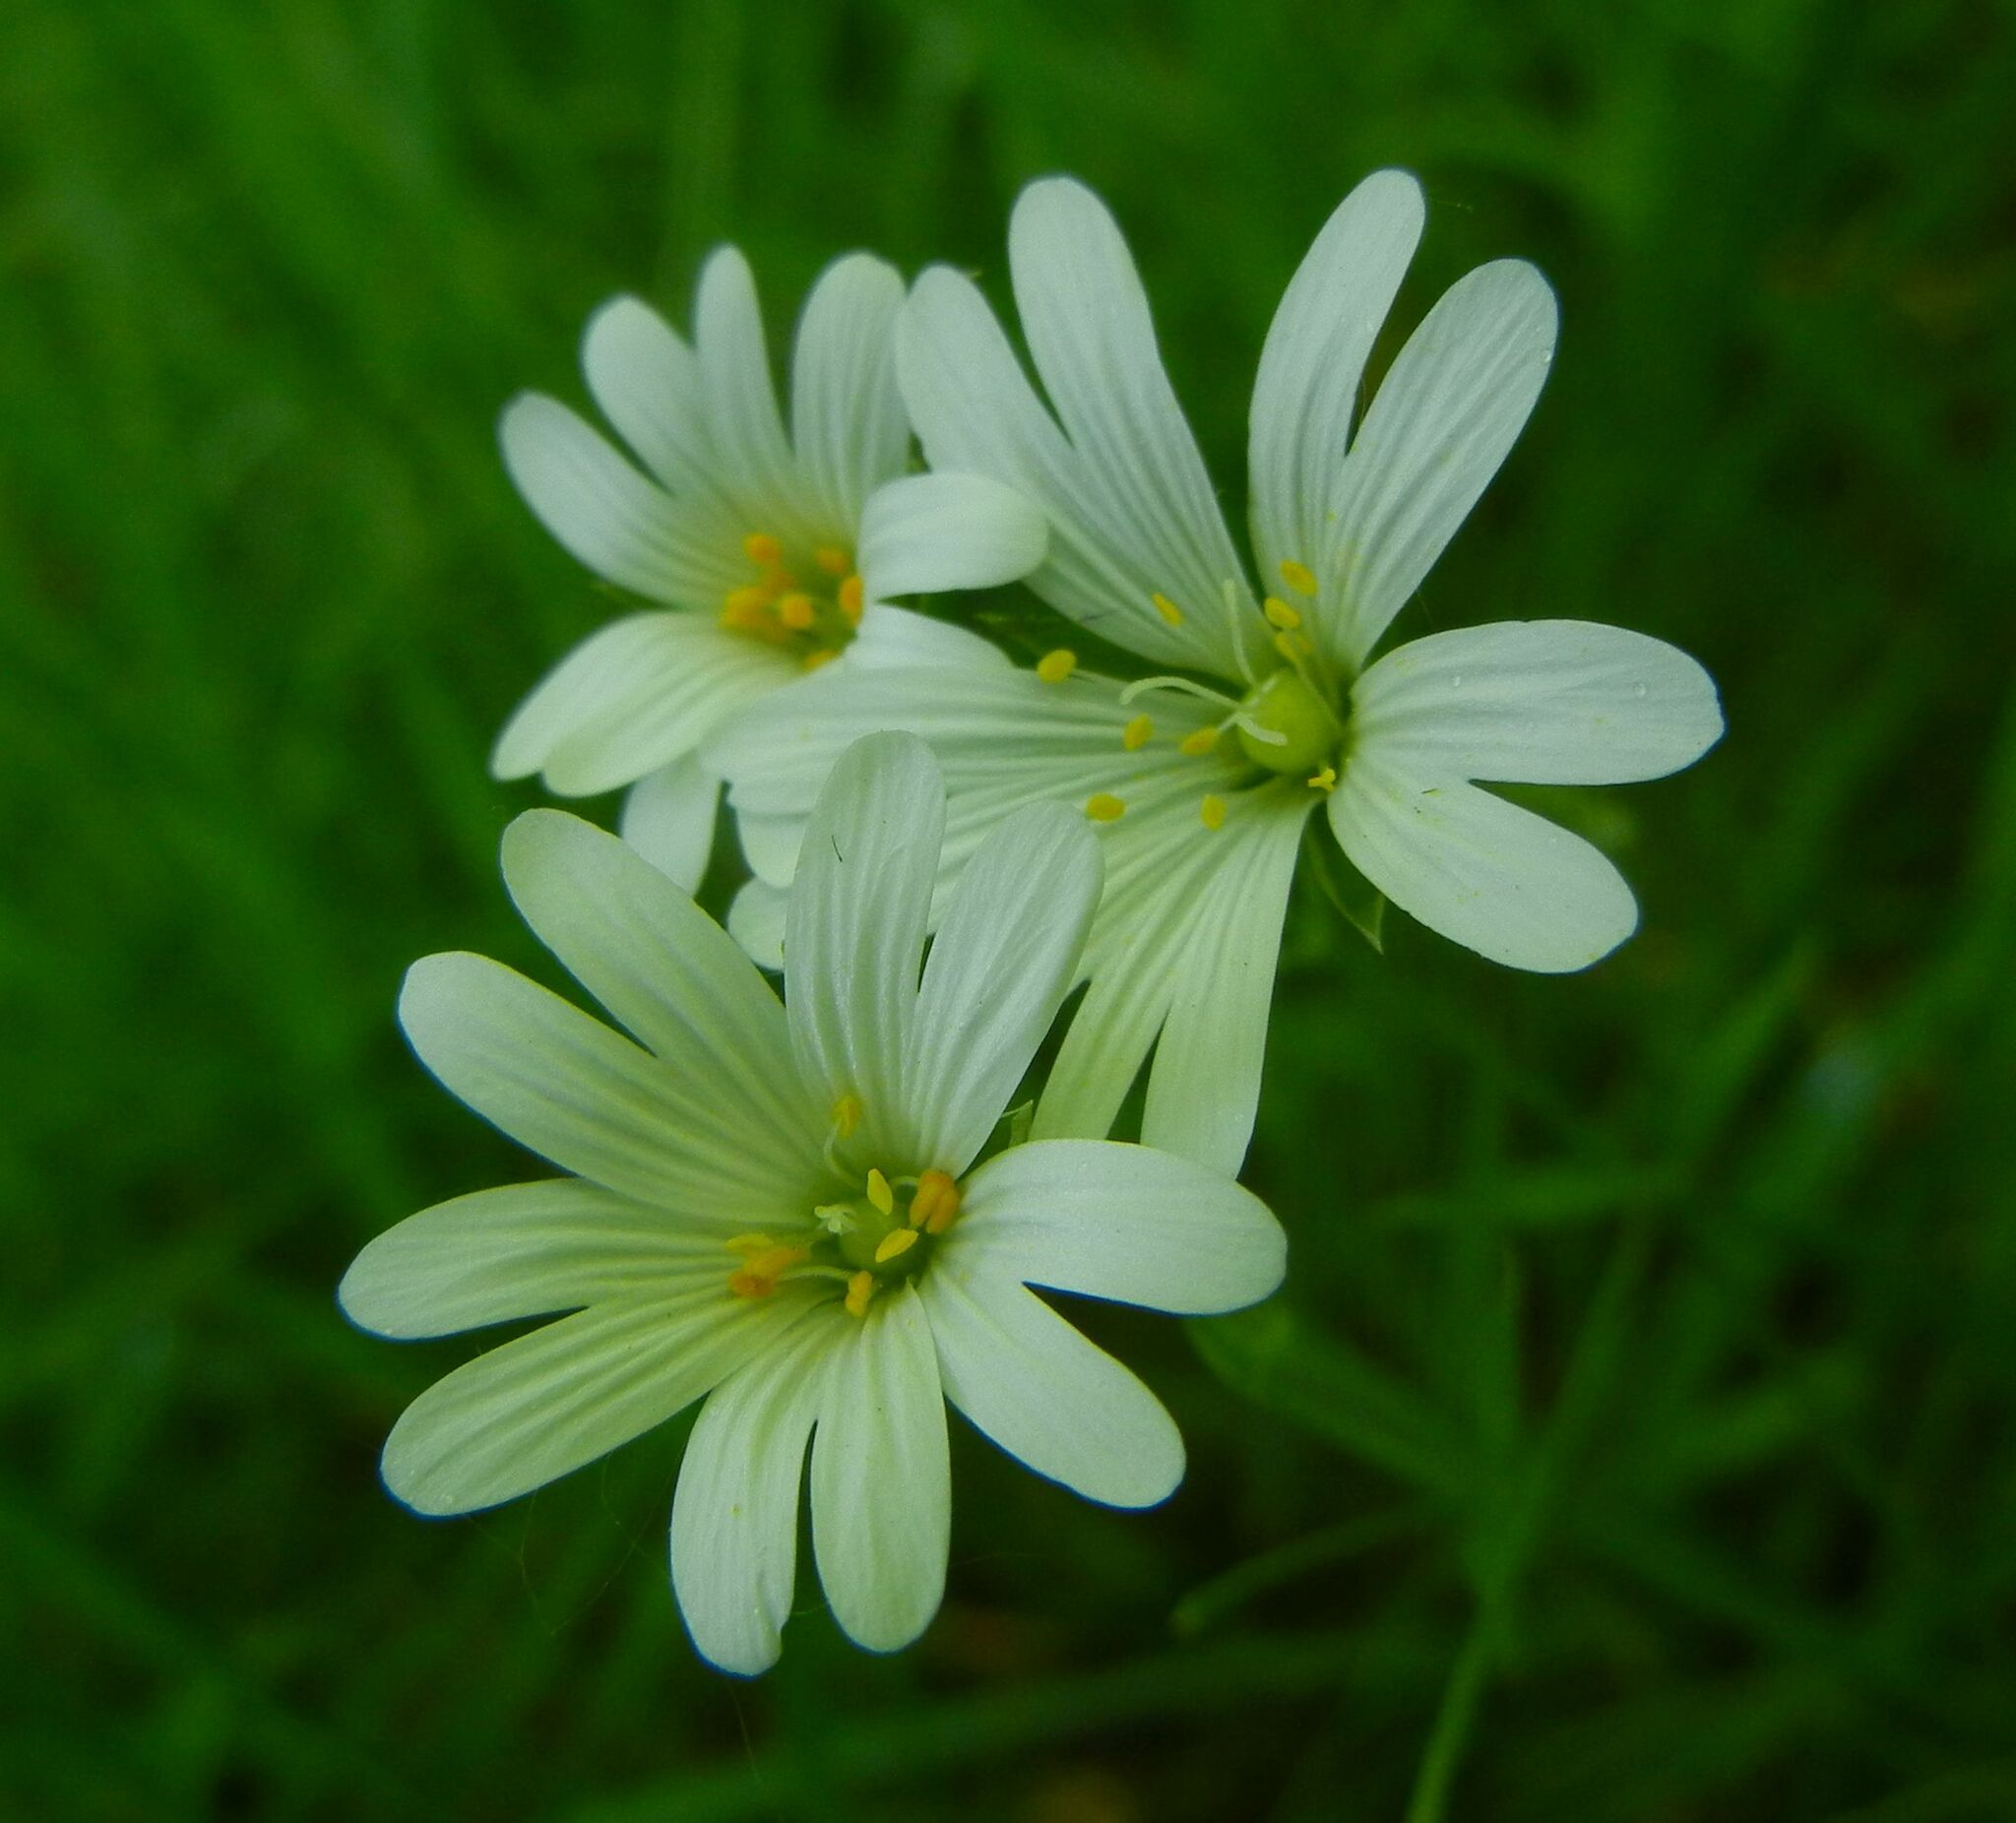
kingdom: Plantae
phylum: Tracheophyta
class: Magnoliopsida
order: Caryophyllales
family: Caryophyllaceae
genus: Rabelera
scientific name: Rabelera holostea
